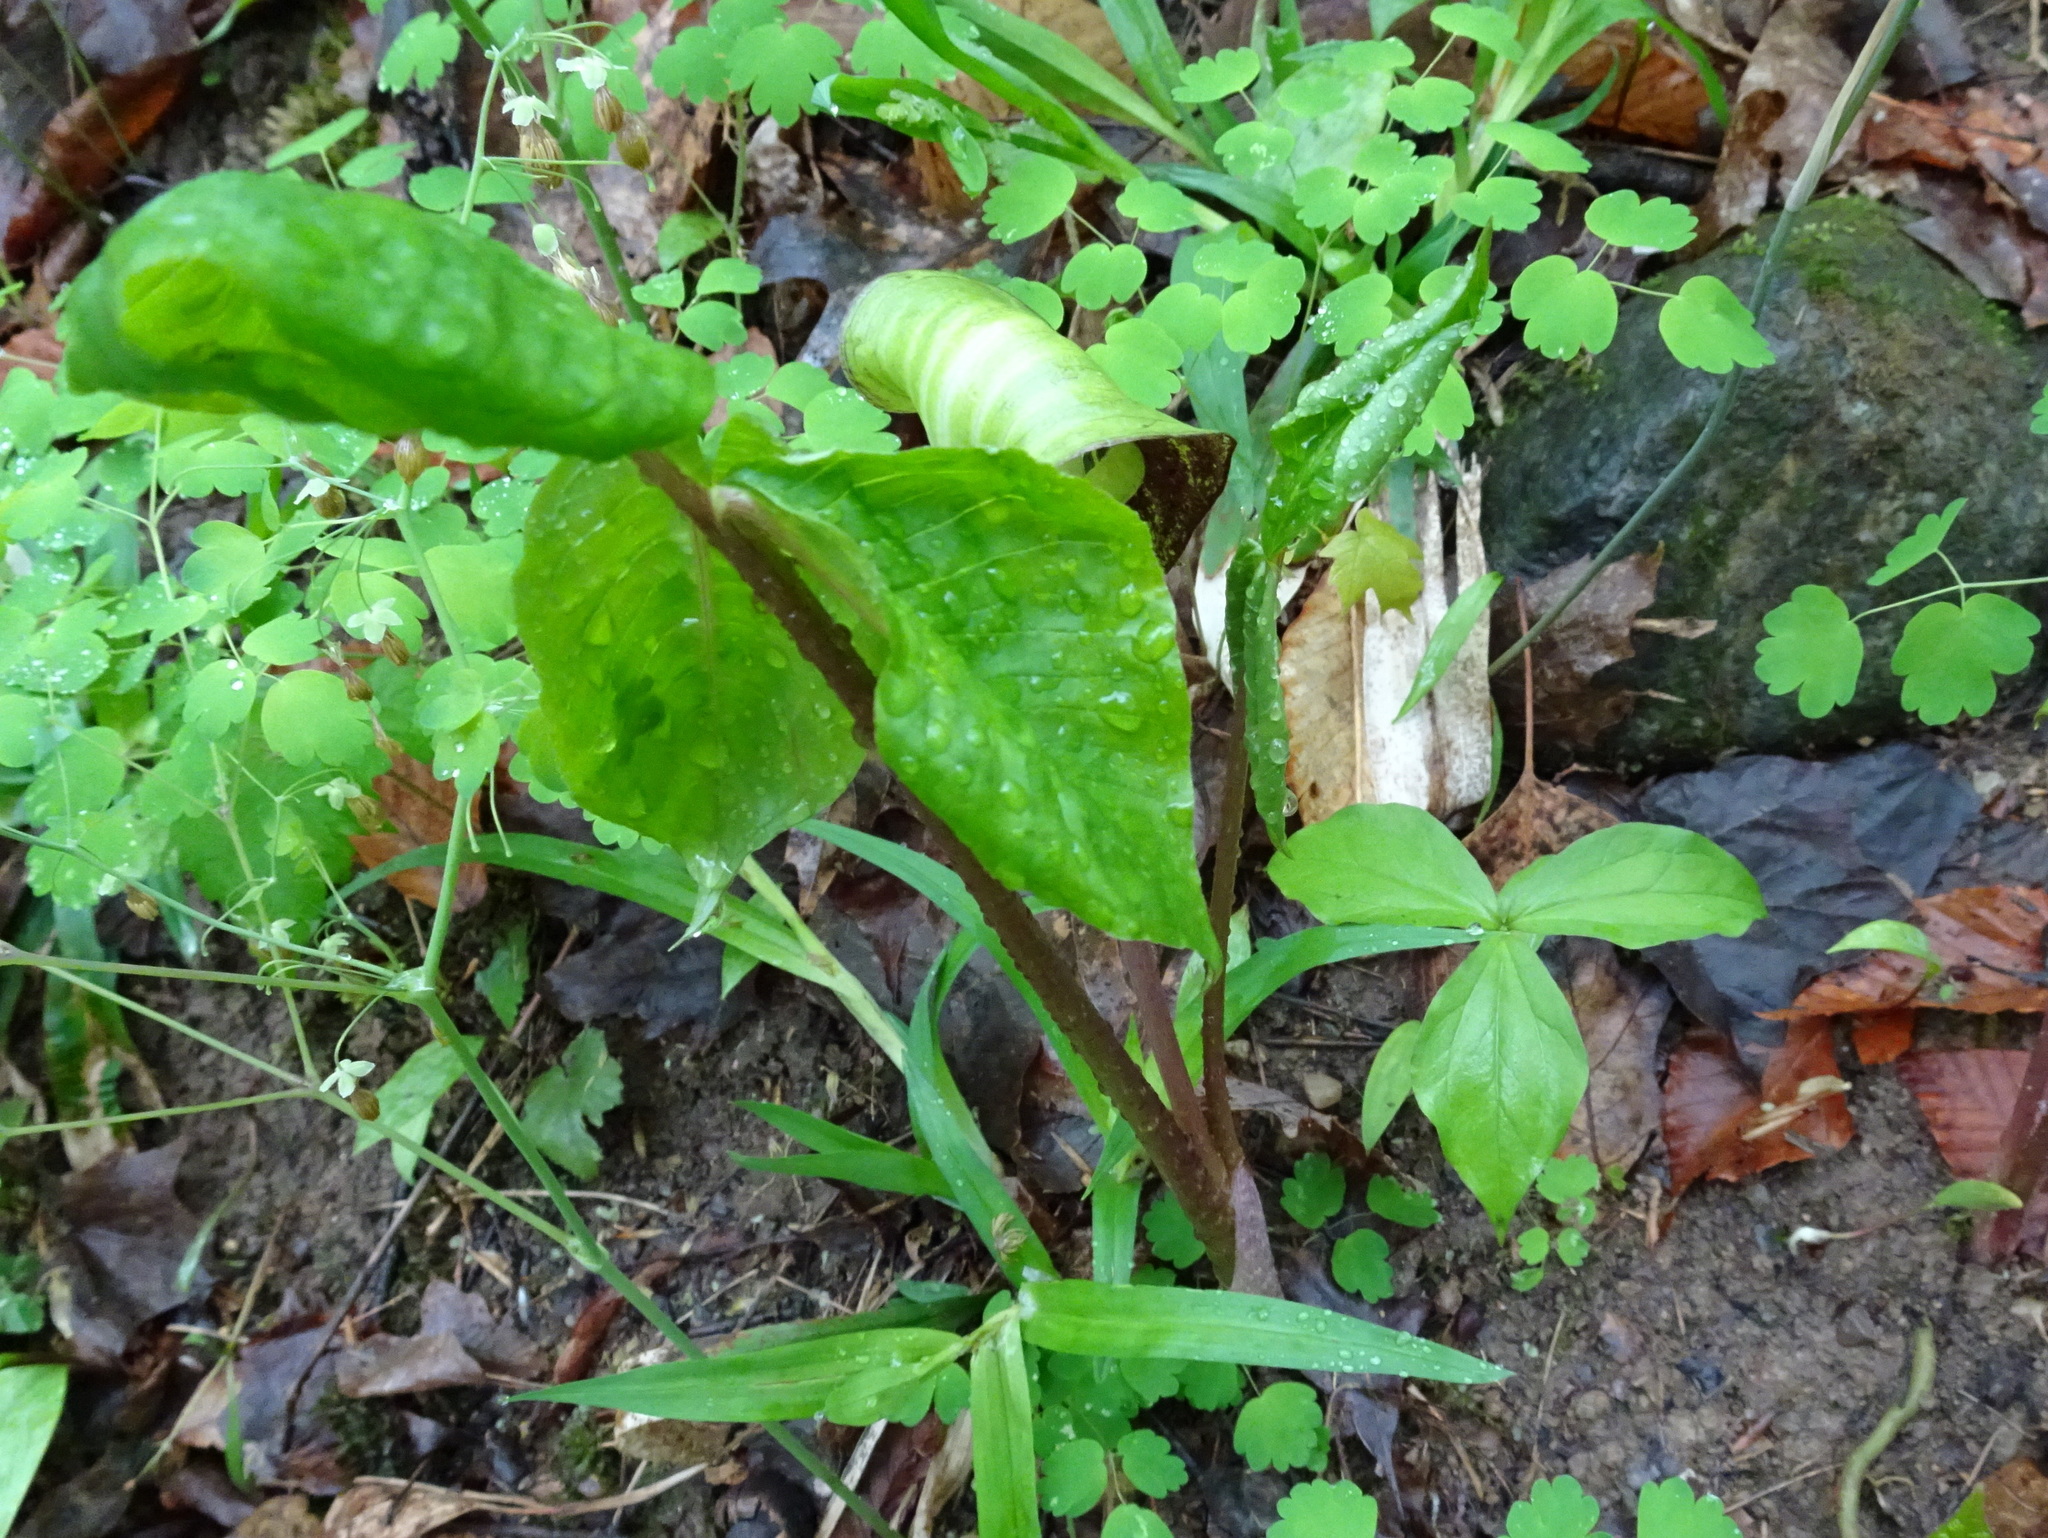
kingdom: Plantae
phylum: Tracheophyta
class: Liliopsida
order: Alismatales
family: Araceae
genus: Arisaema
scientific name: Arisaema triphyllum
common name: Jack-in-the-pulpit
